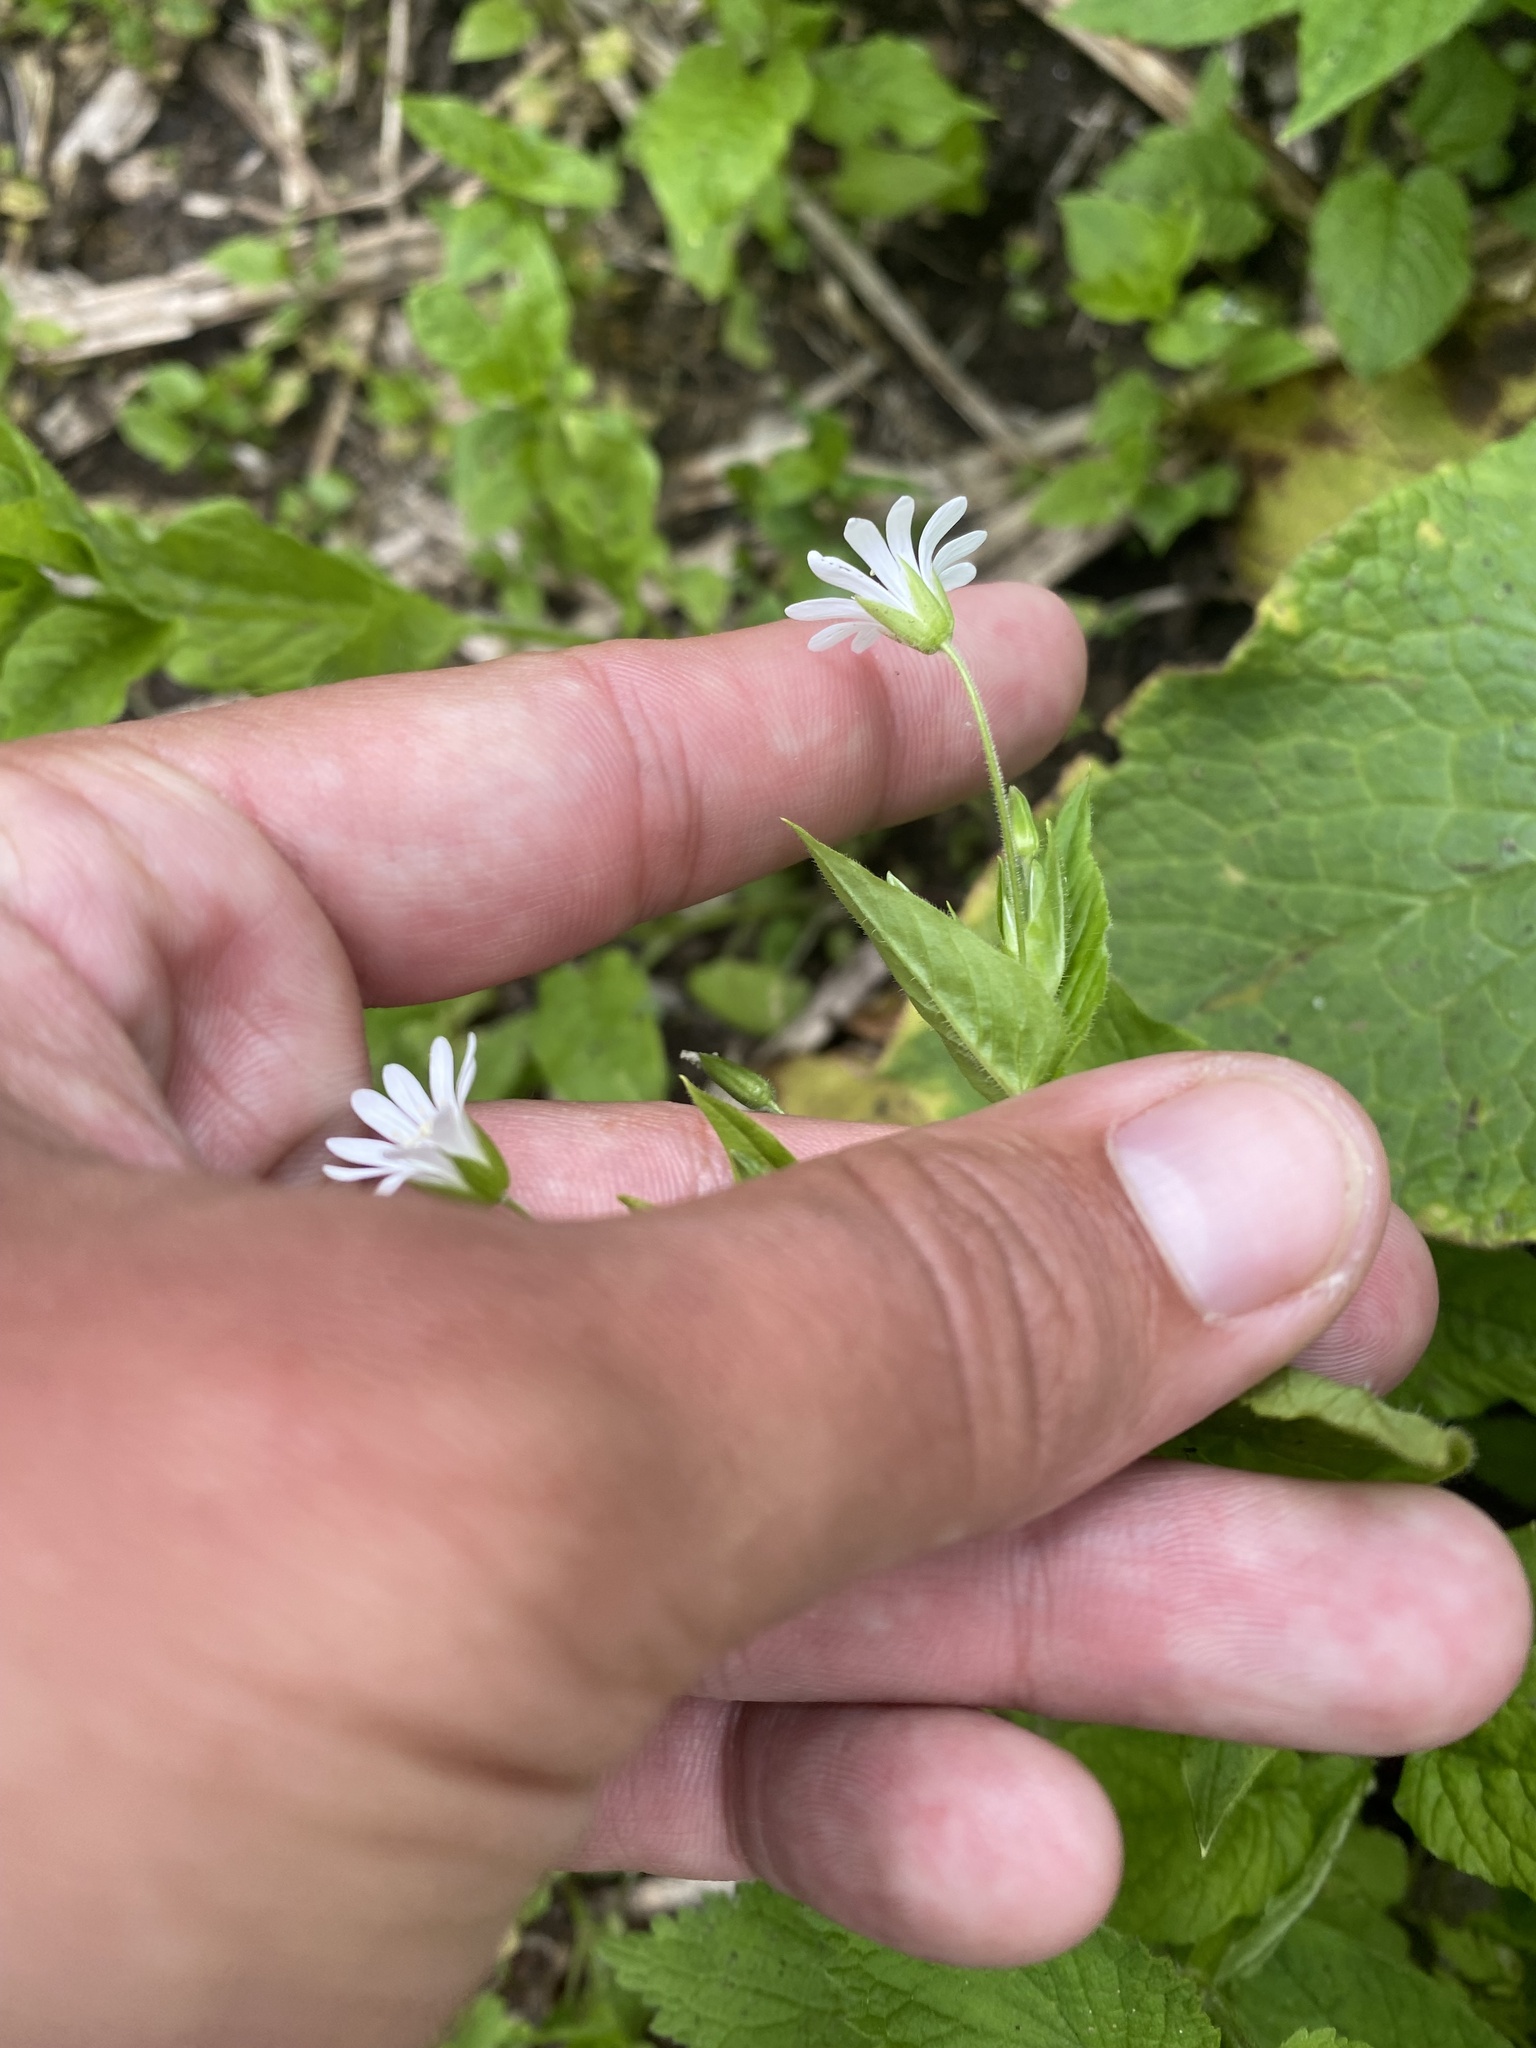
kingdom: Plantae
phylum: Tracheophyta
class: Magnoliopsida
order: Caryophyllales
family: Caryophyllaceae
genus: Stellaria
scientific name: Stellaria nemorum
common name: Wood stitchwort
